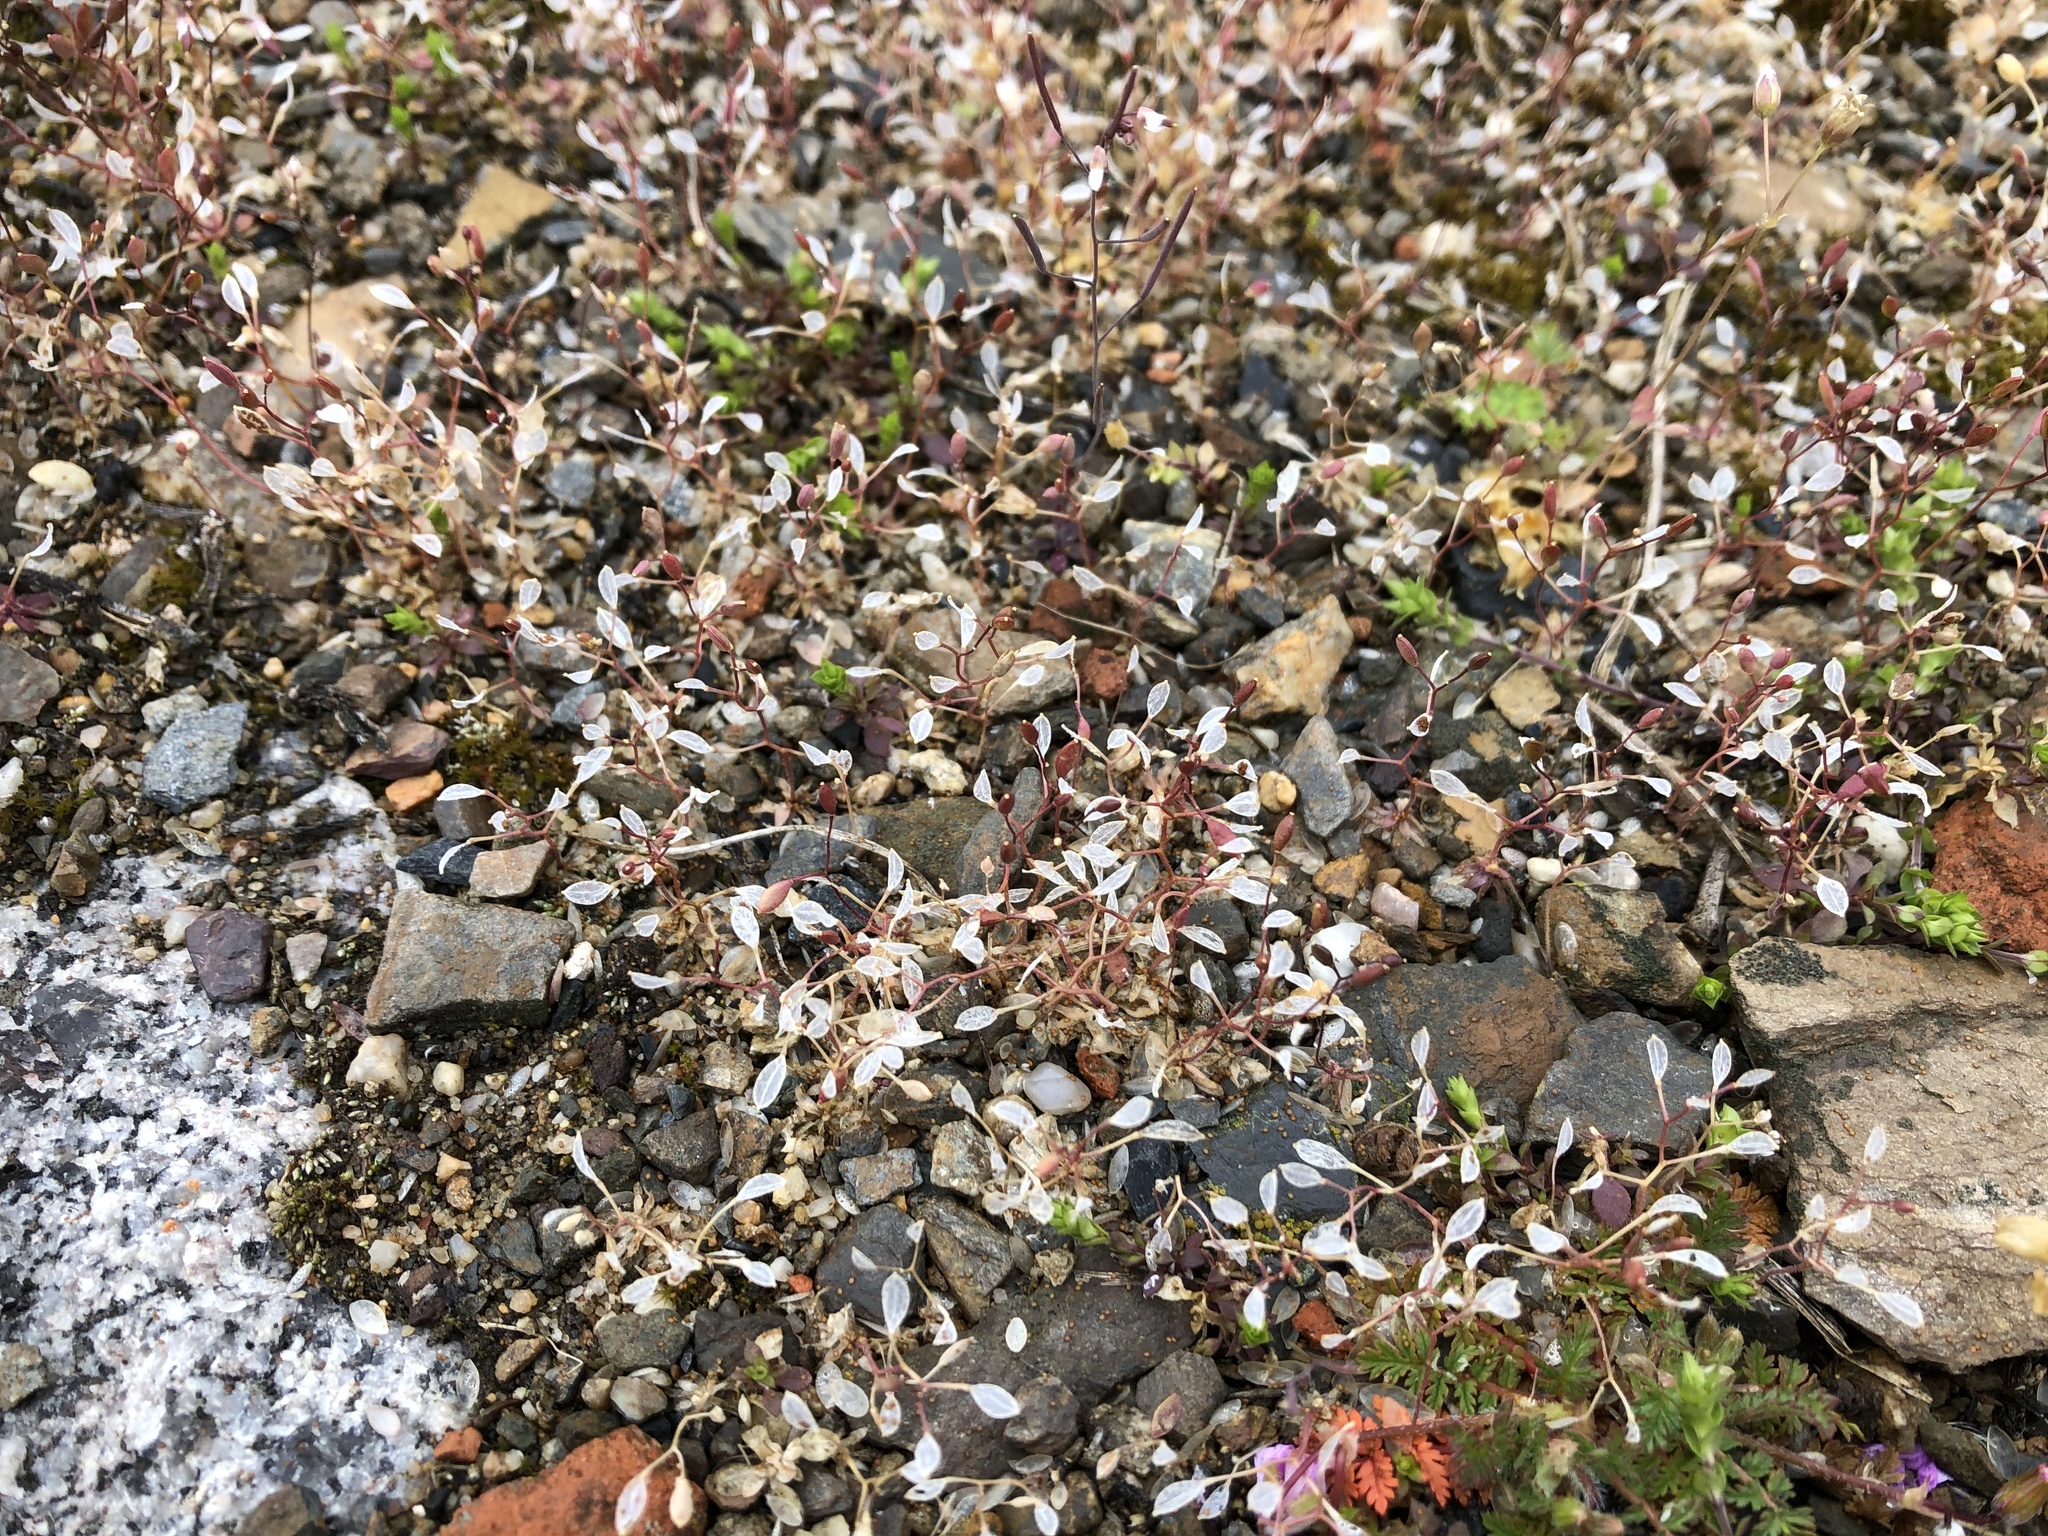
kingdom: Plantae
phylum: Tracheophyta
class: Magnoliopsida
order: Brassicales
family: Brassicaceae
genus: Draba
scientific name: Draba verna
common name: Spring draba
